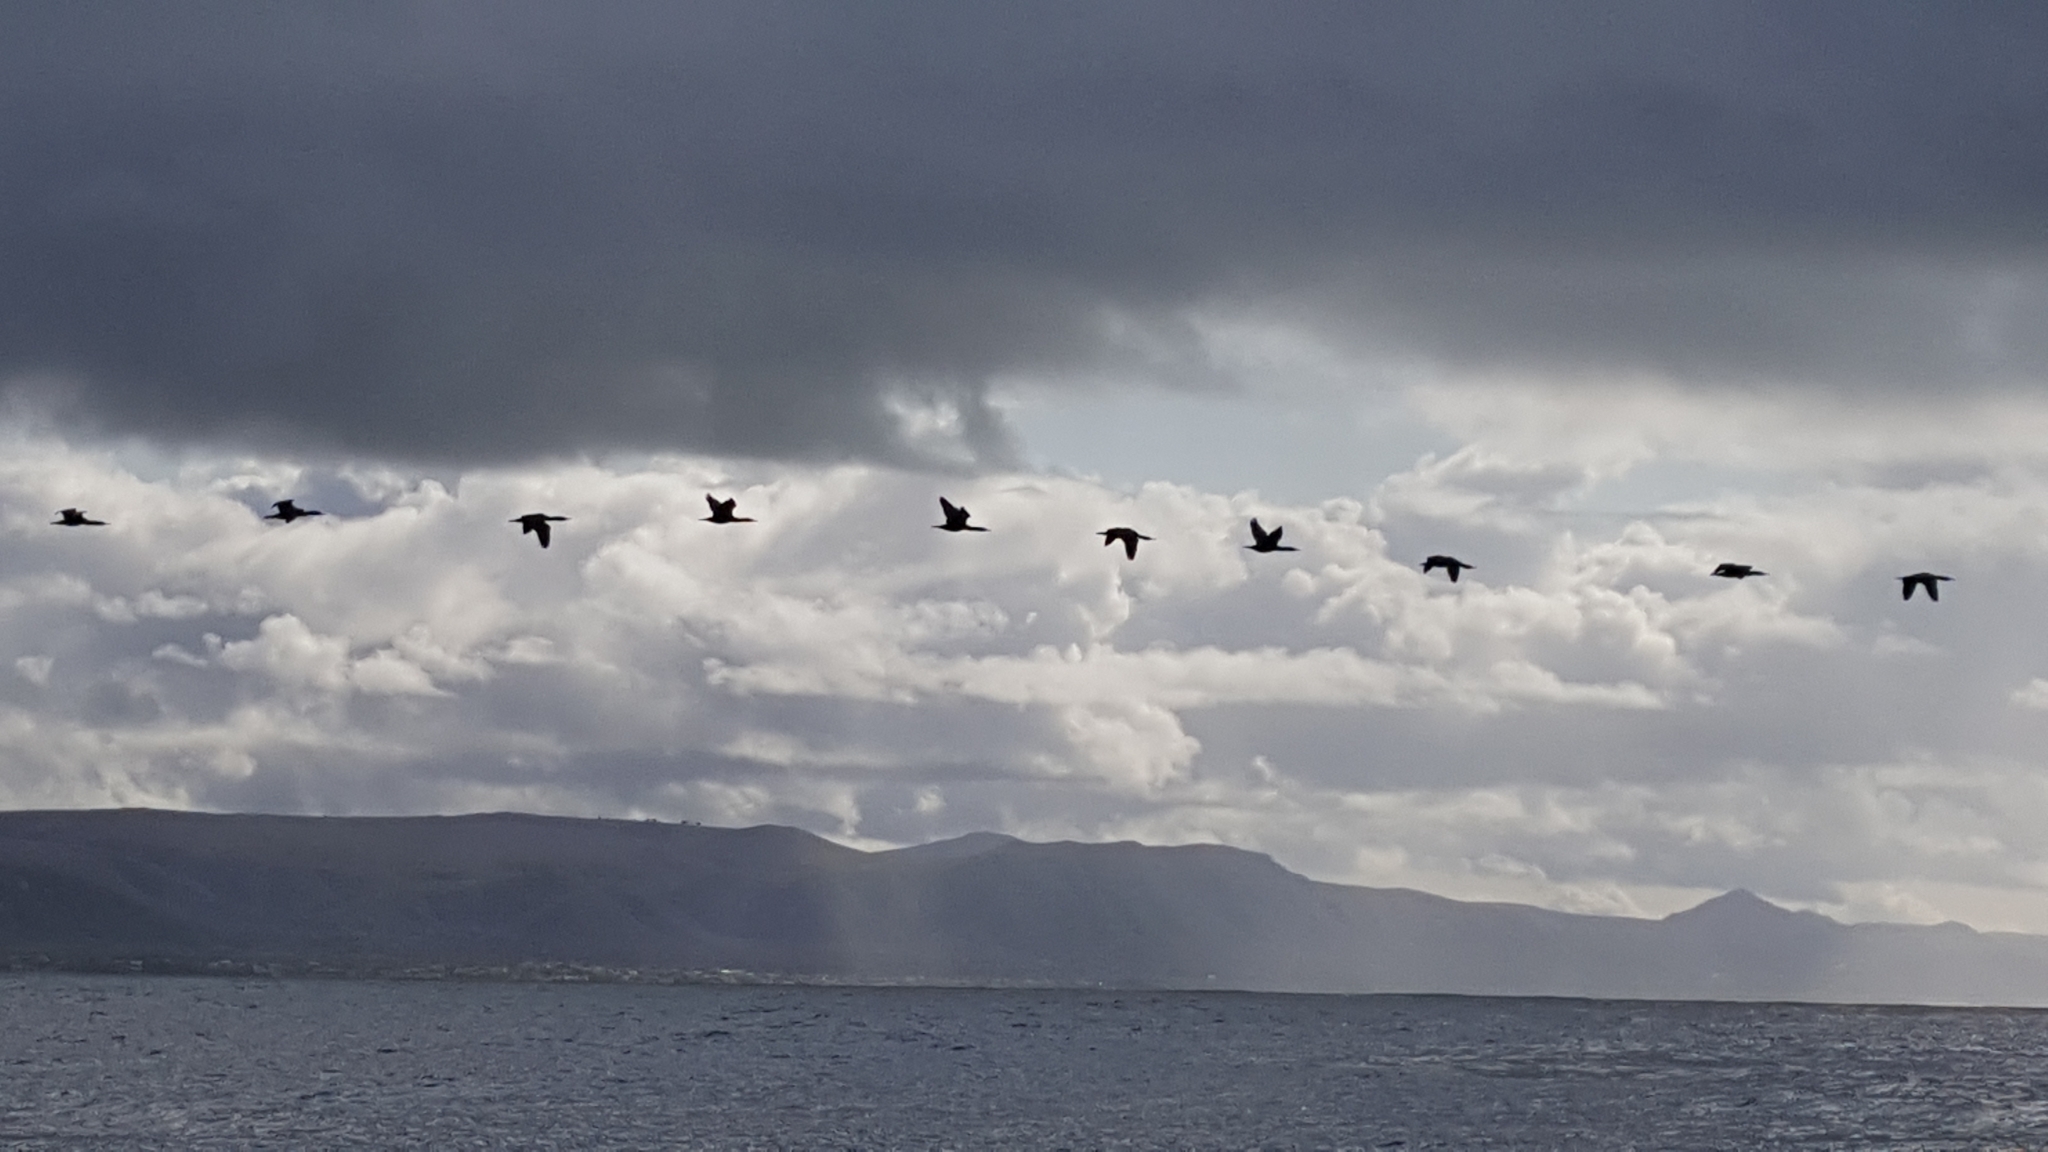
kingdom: Animalia
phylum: Chordata
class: Aves
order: Suliformes
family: Phalacrocoracidae
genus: Phalacrocorax
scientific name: Phalacrocorax capensis
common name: Cape cormorant
